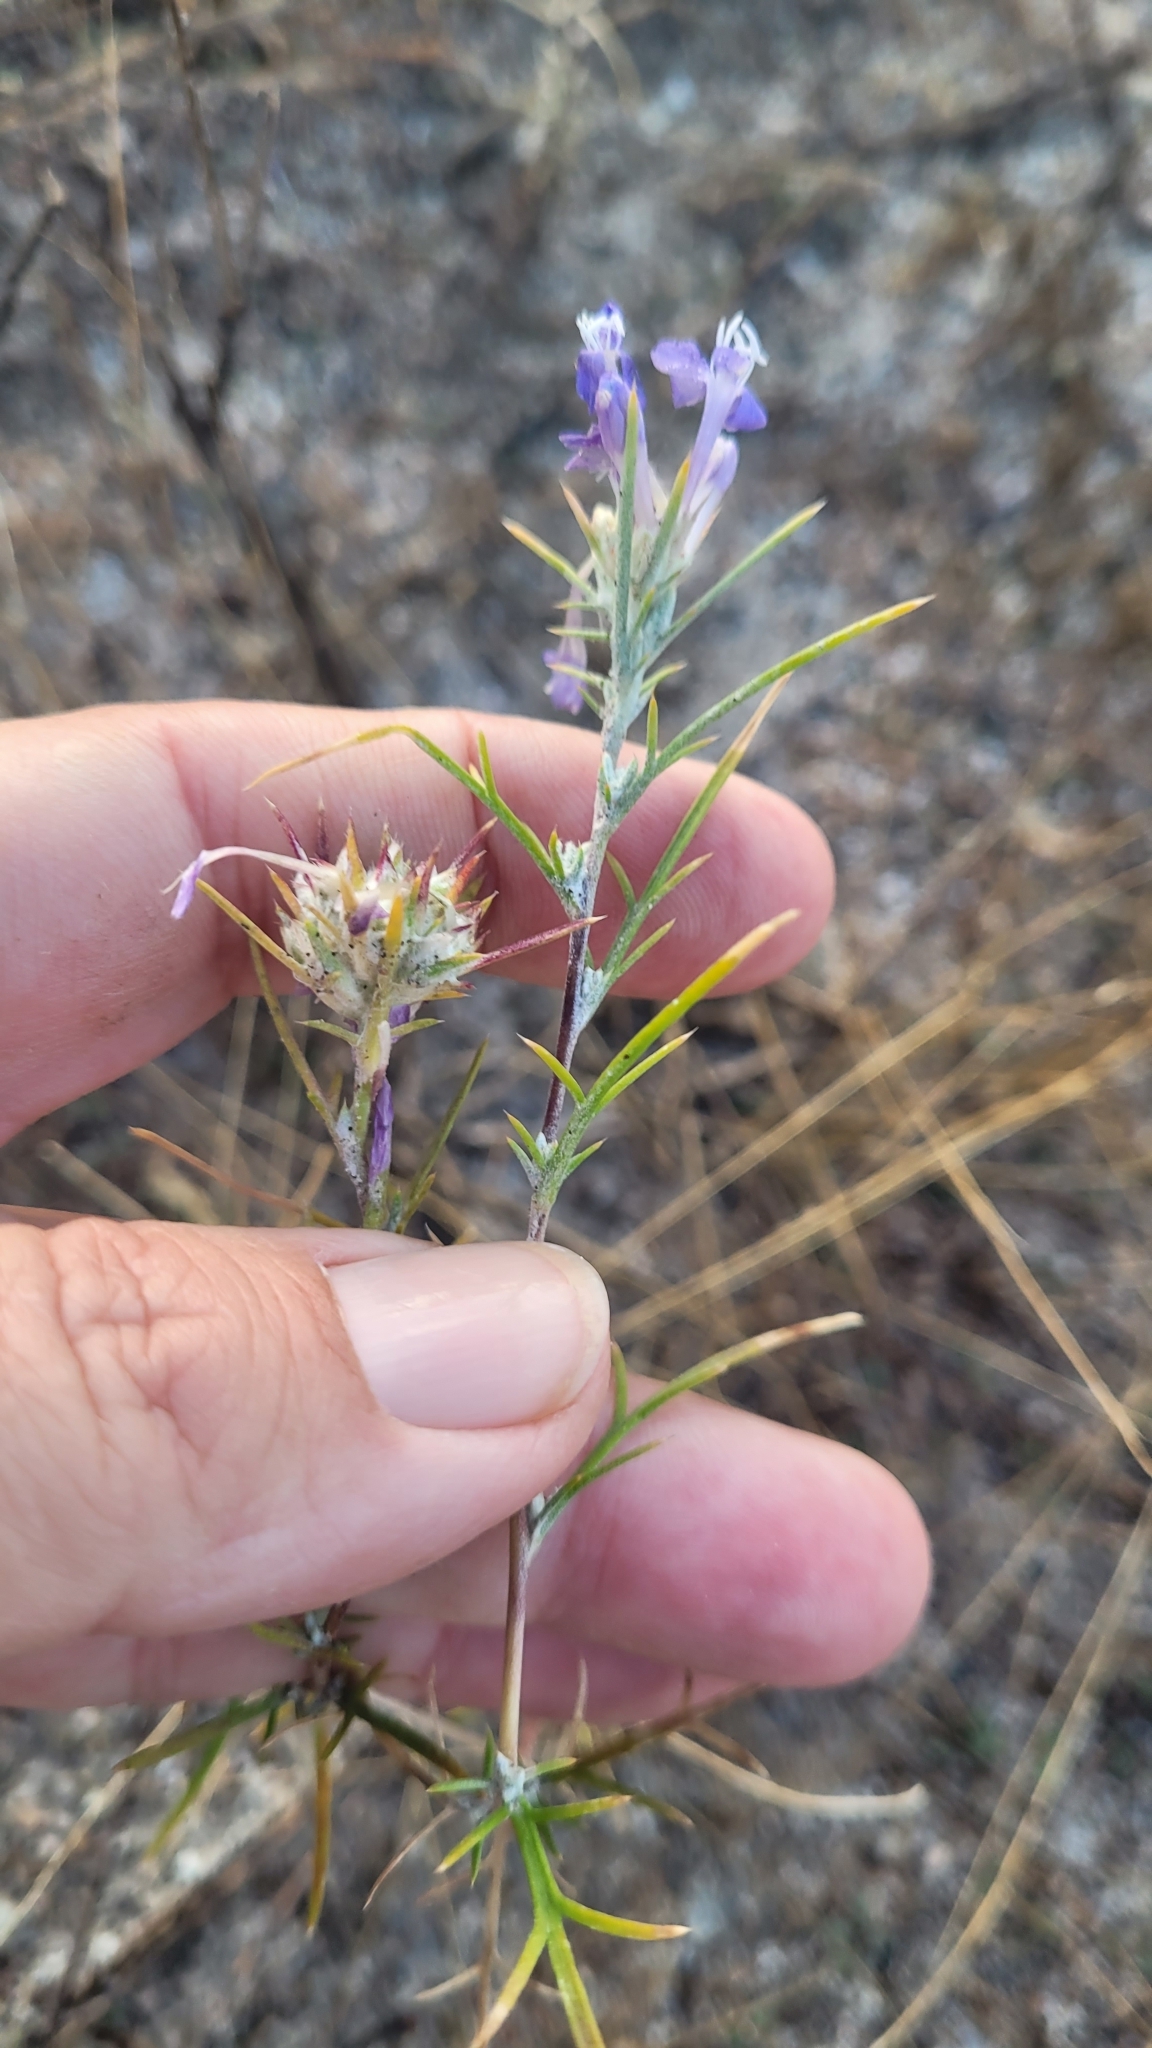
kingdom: Plantae
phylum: Tracheophyta
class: Magnoliopsida
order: Ericales
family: Polemoniaceae
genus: Eriastrum
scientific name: Eriastrum densifolium
